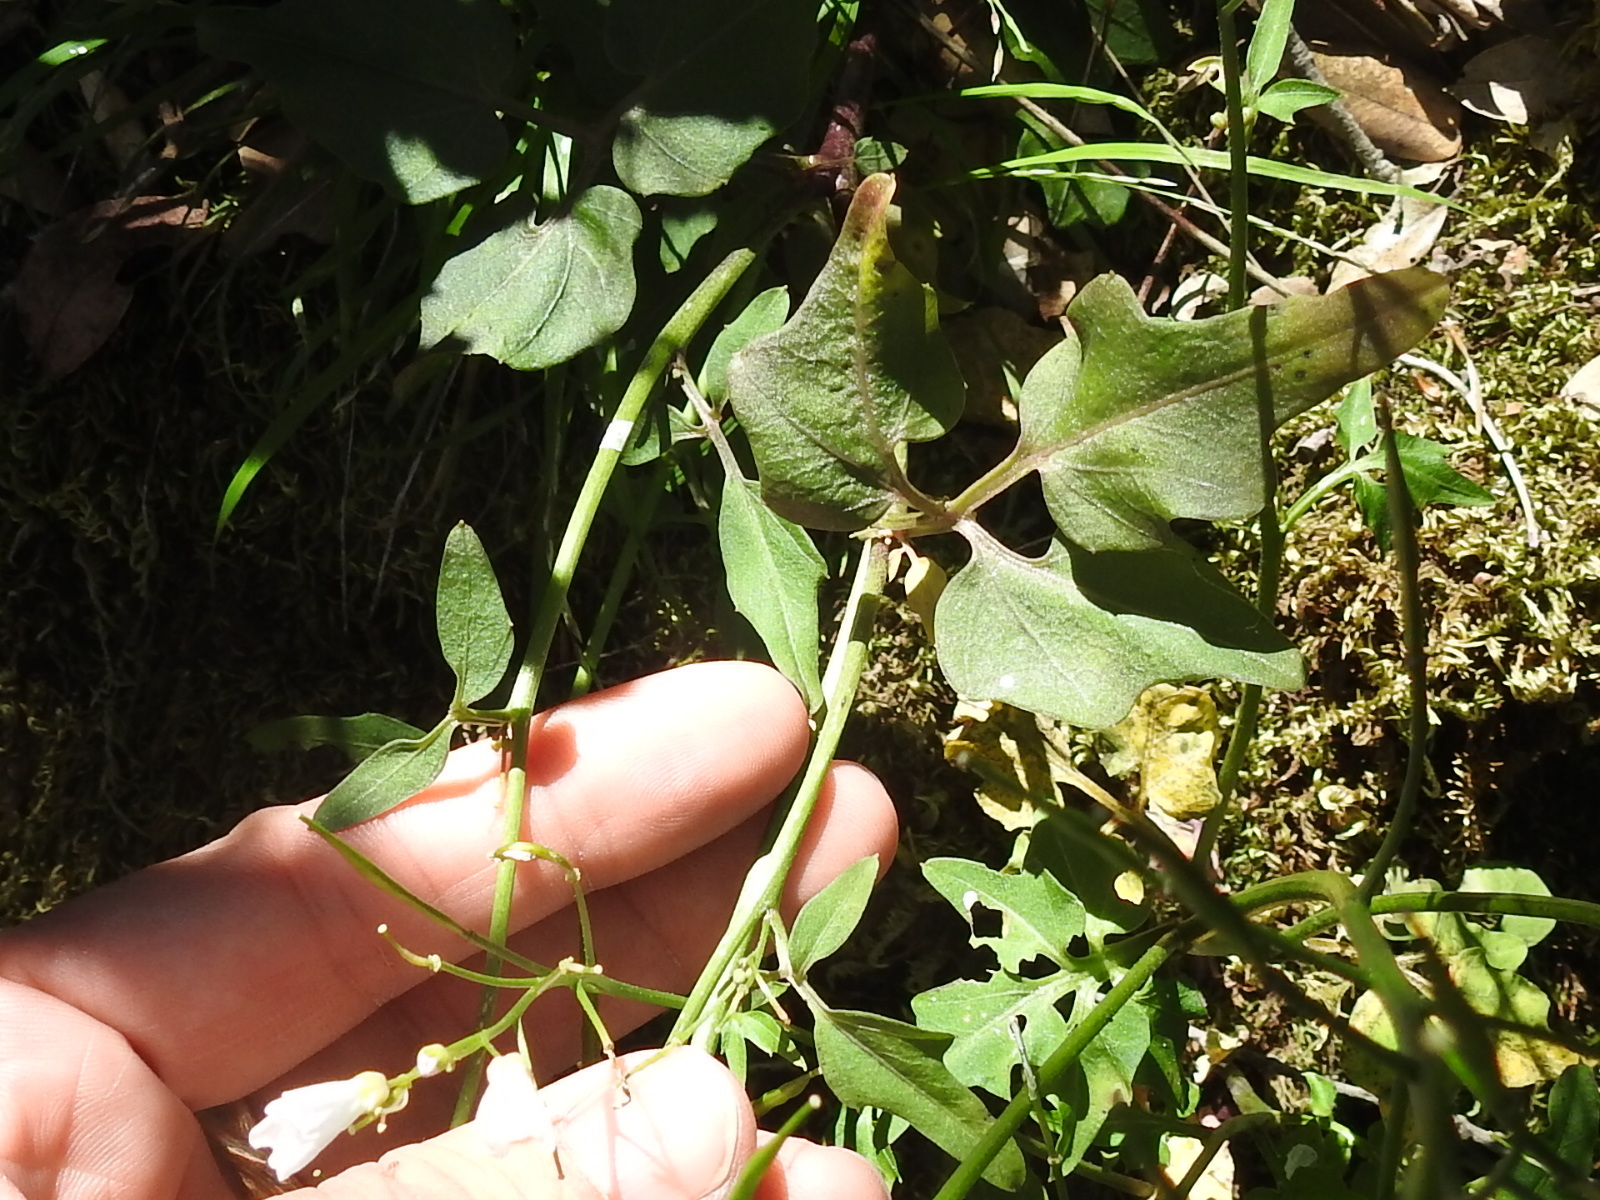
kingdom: Plantae
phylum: Tracheophyta
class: Magnoliopsida
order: Brassicales
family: Brassicaceae
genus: Cardamine
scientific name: Cardamine californica
